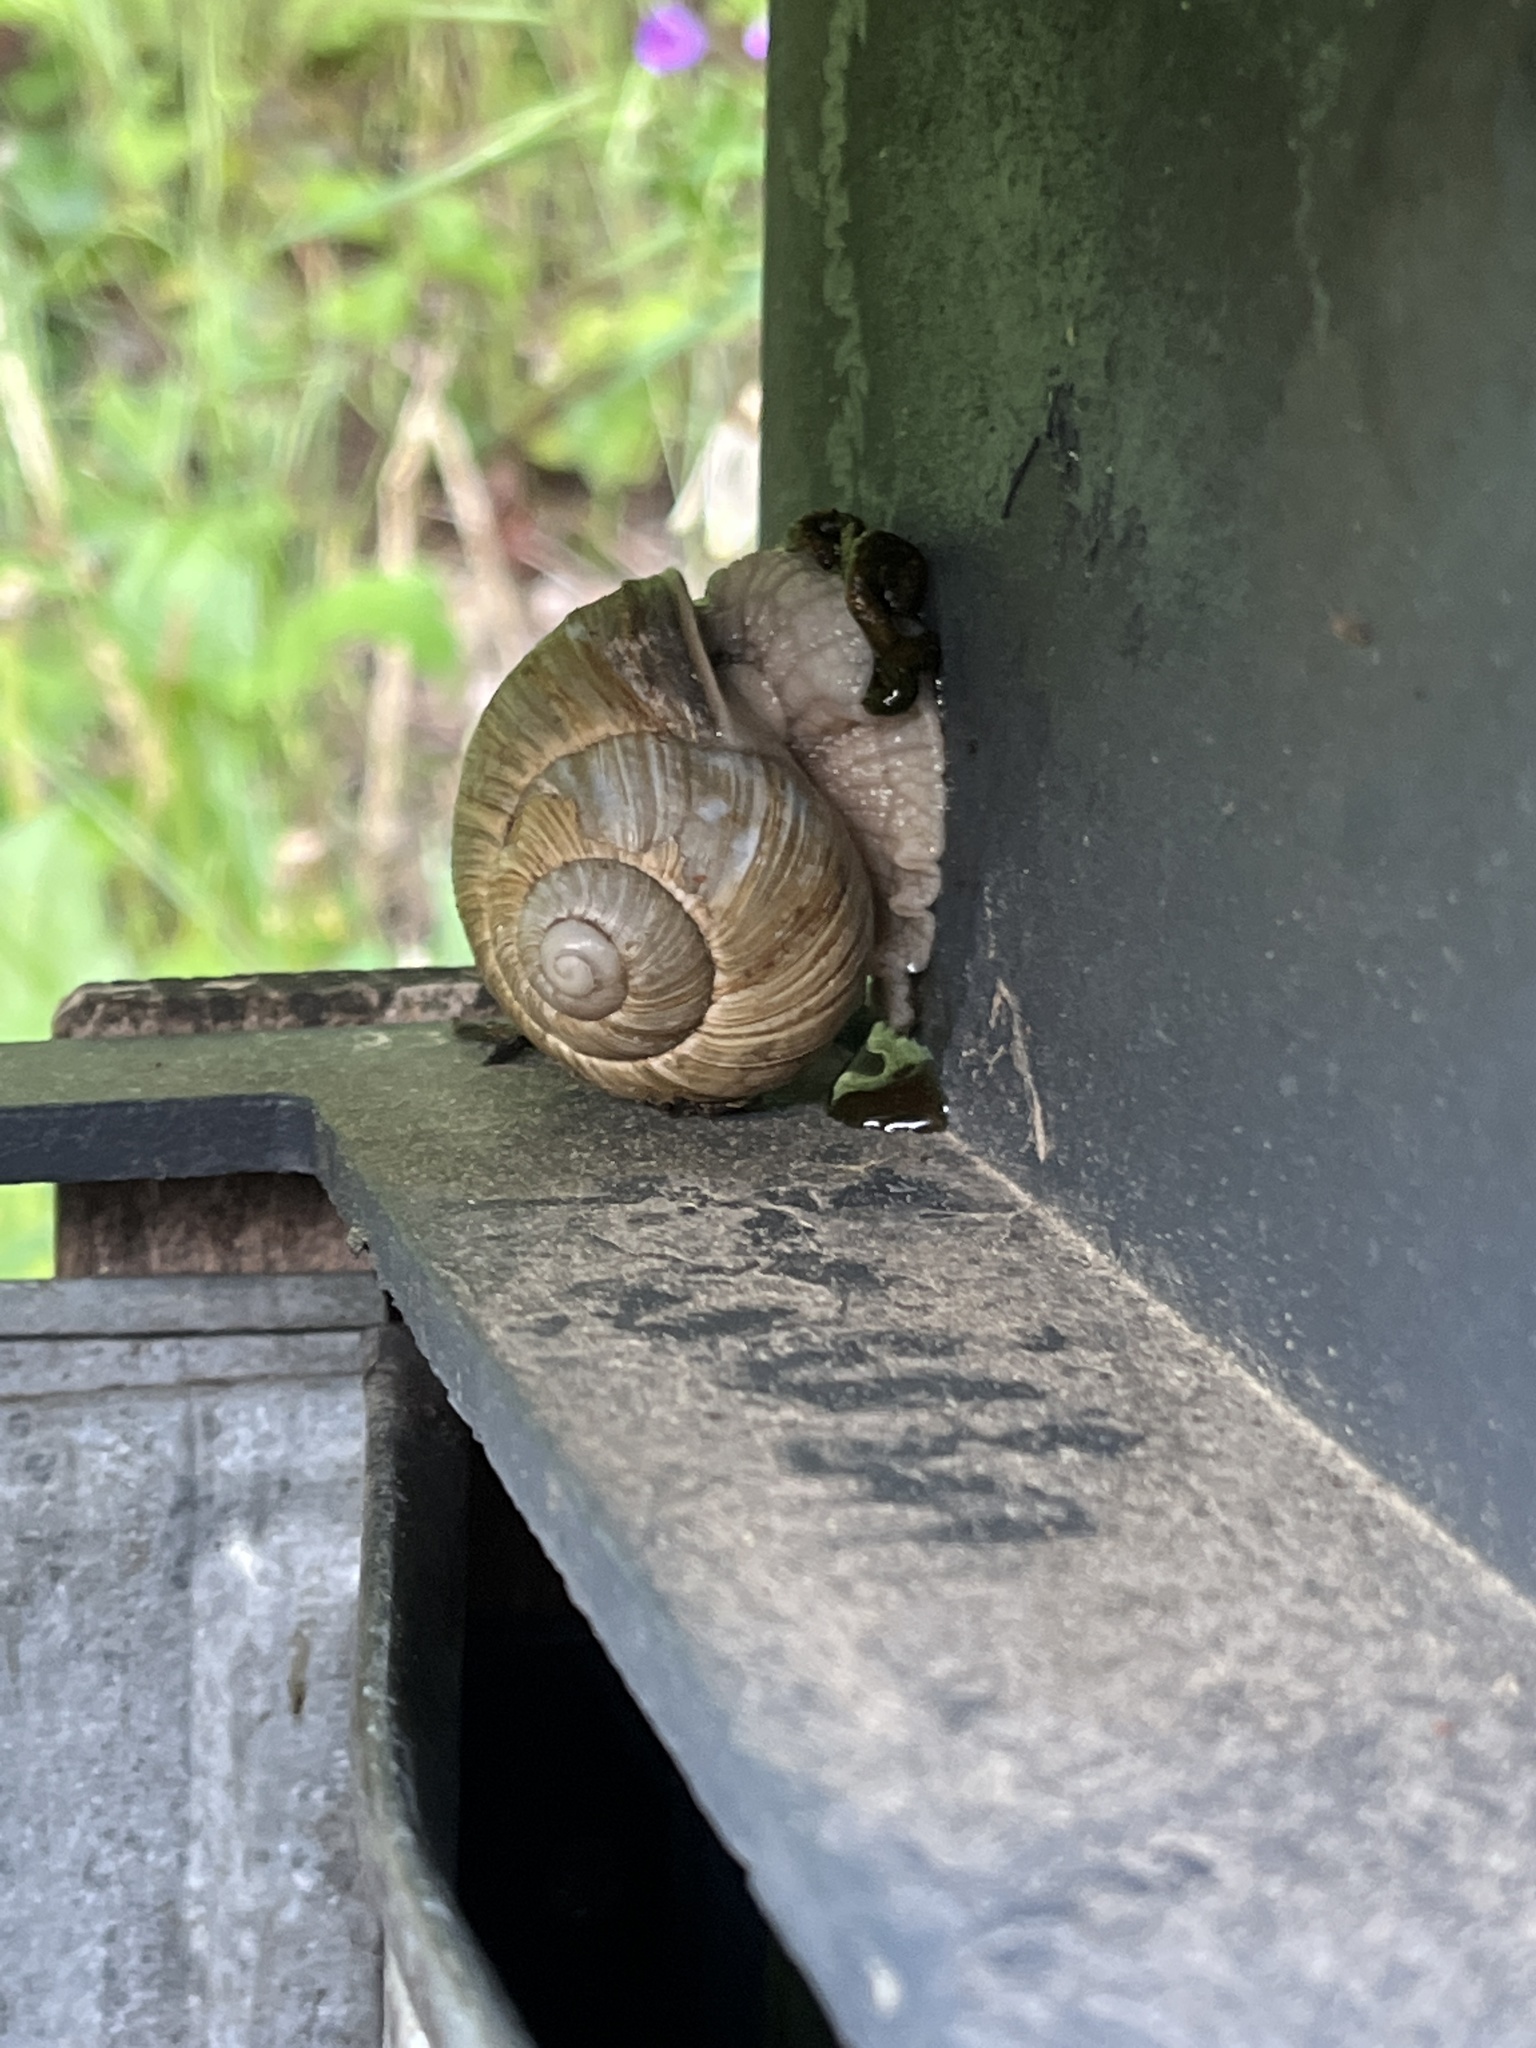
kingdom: Animalia
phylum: Mollusca
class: Gastropoda
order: Stylommatophora
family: Helicidae
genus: Helix
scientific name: Helix pomatia
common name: Roman snail
